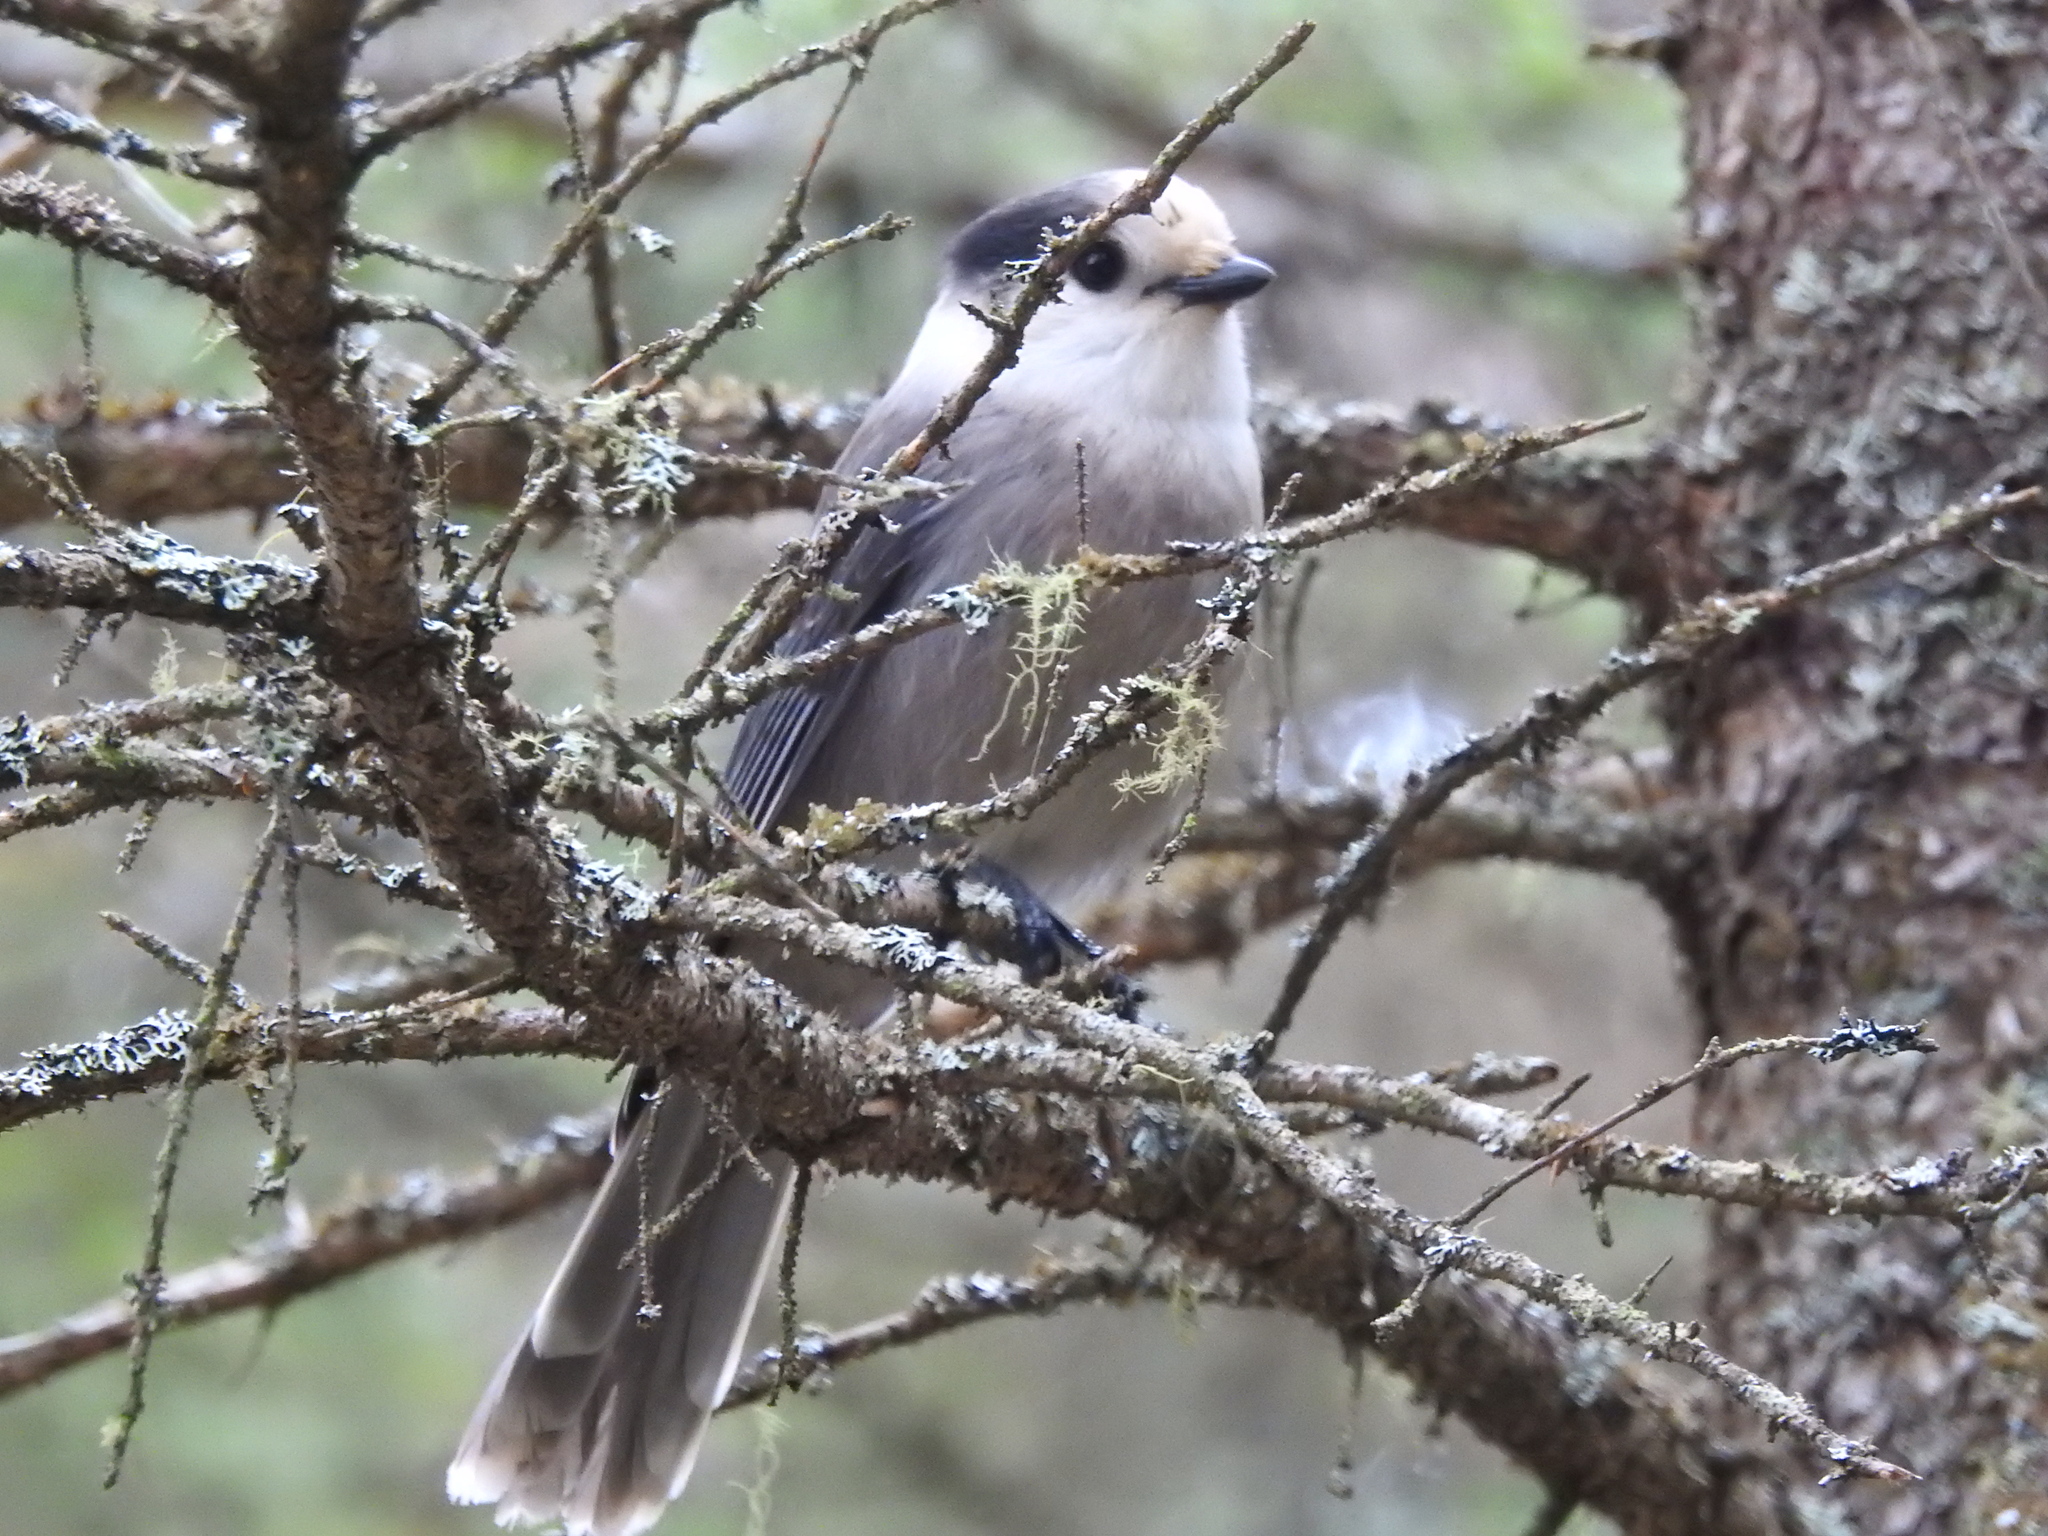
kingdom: Animalia
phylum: Chordata
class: Aves
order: Passeriformes
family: Corvidae
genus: Perisoreus
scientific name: Perisoreus canadensis
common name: Gray jay
